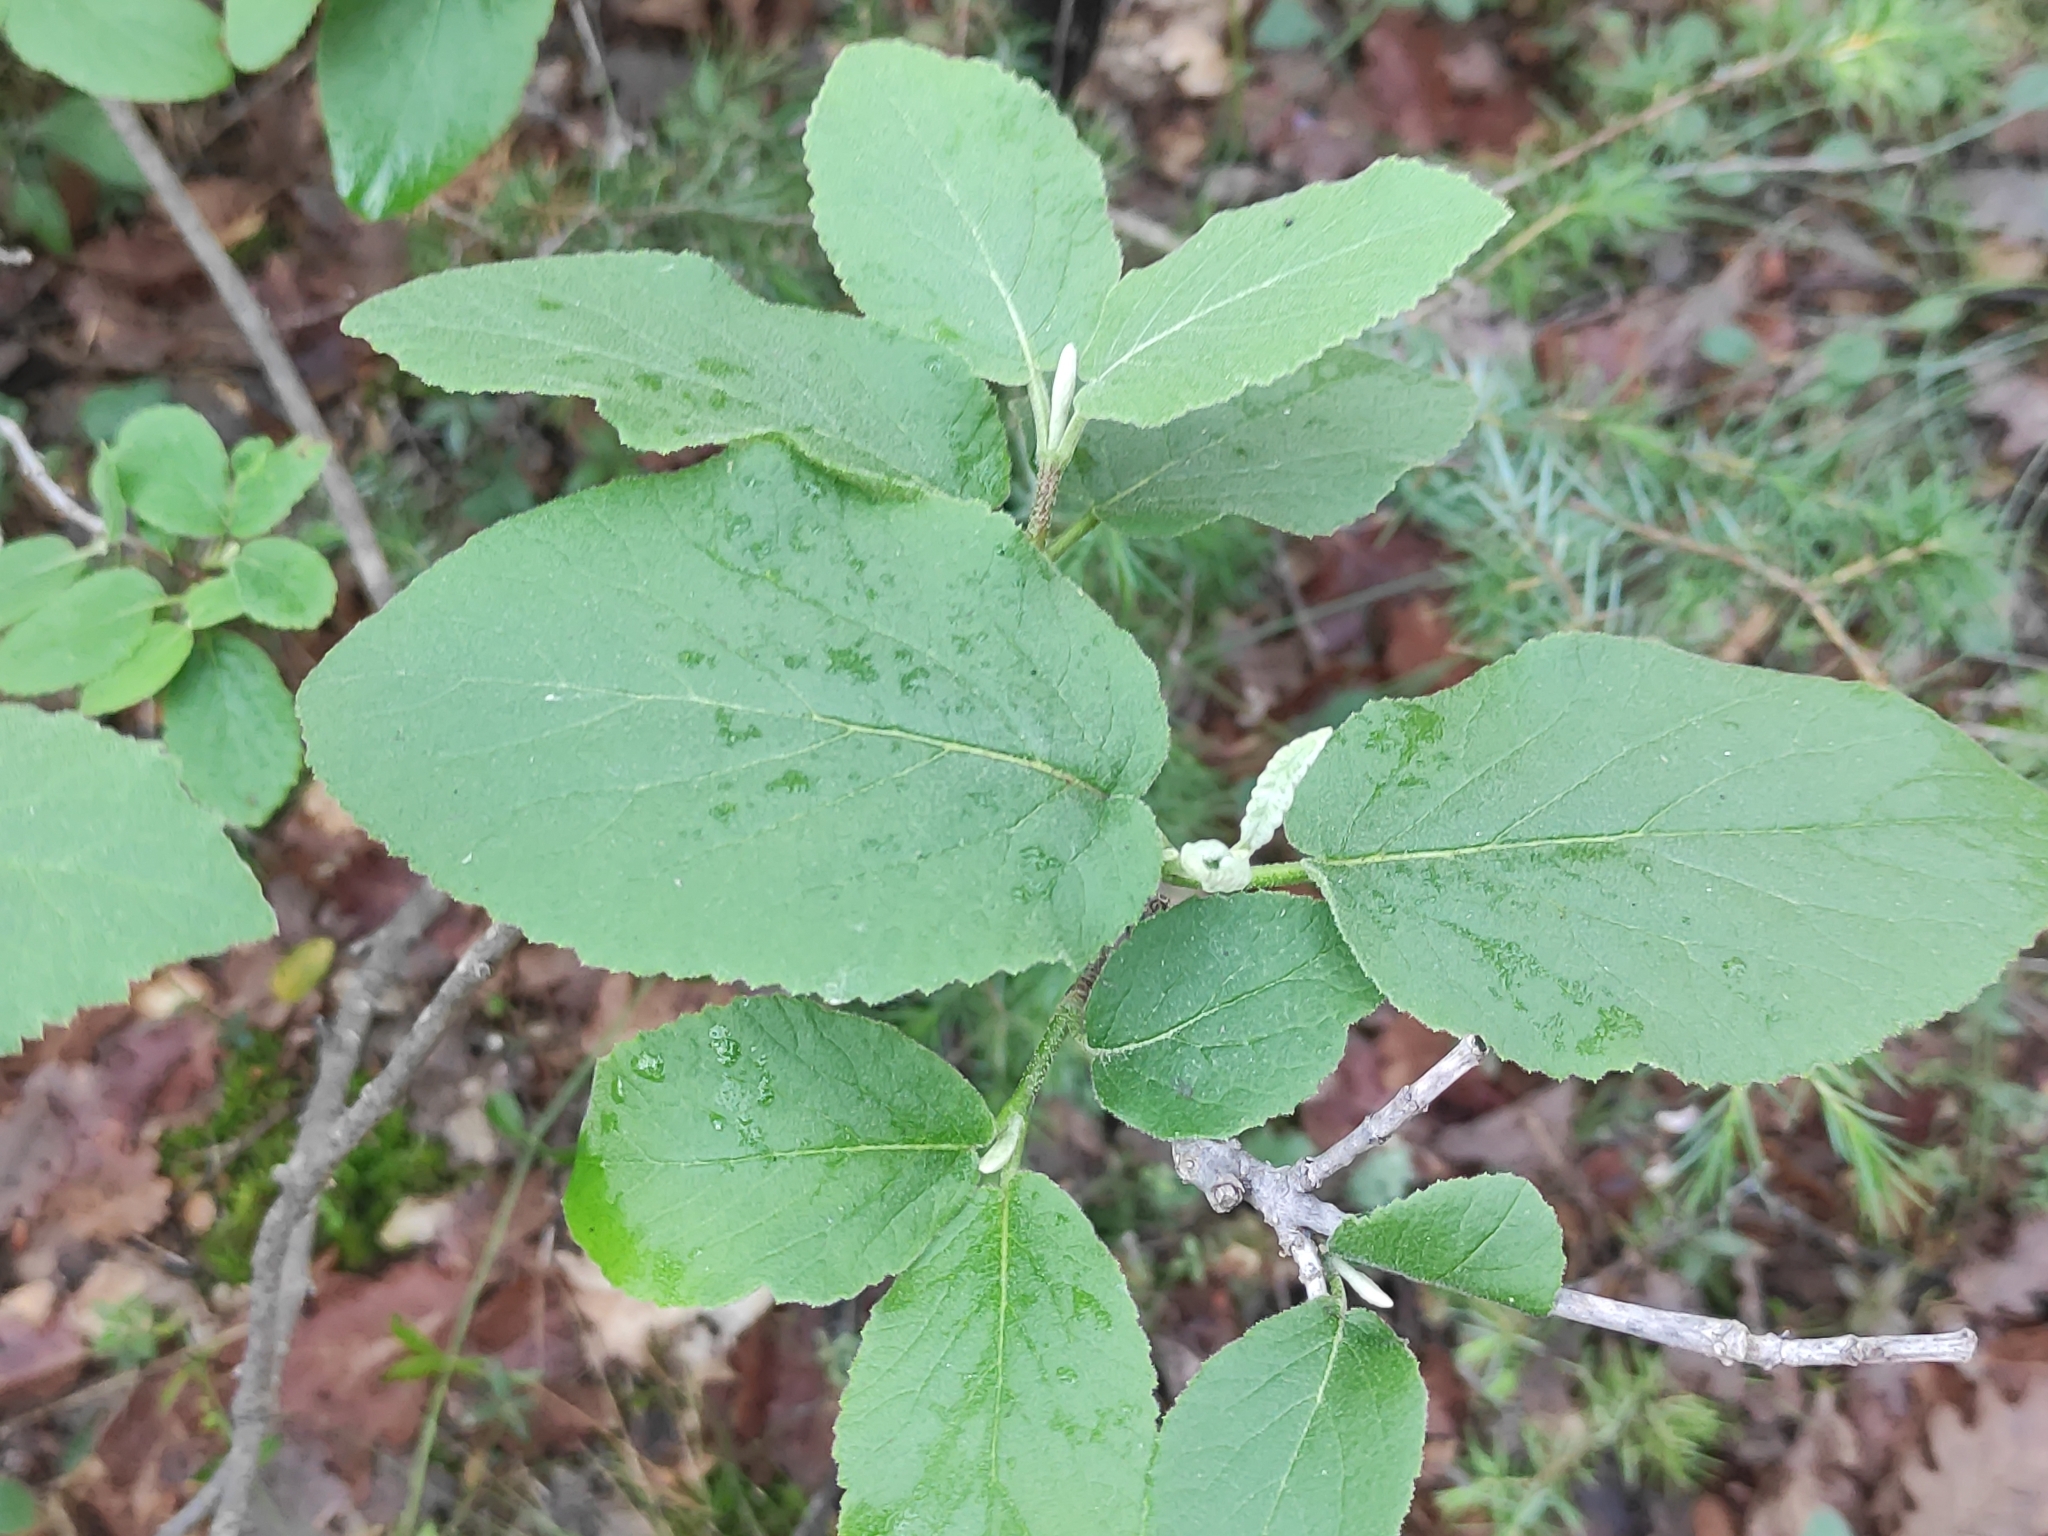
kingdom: Plantae
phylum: Tracheophyta
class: Magnoliopsida
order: Dipsacales
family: Viburnaceae
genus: Viburnum
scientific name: Viburnum lantana
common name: Wayfaring tree
